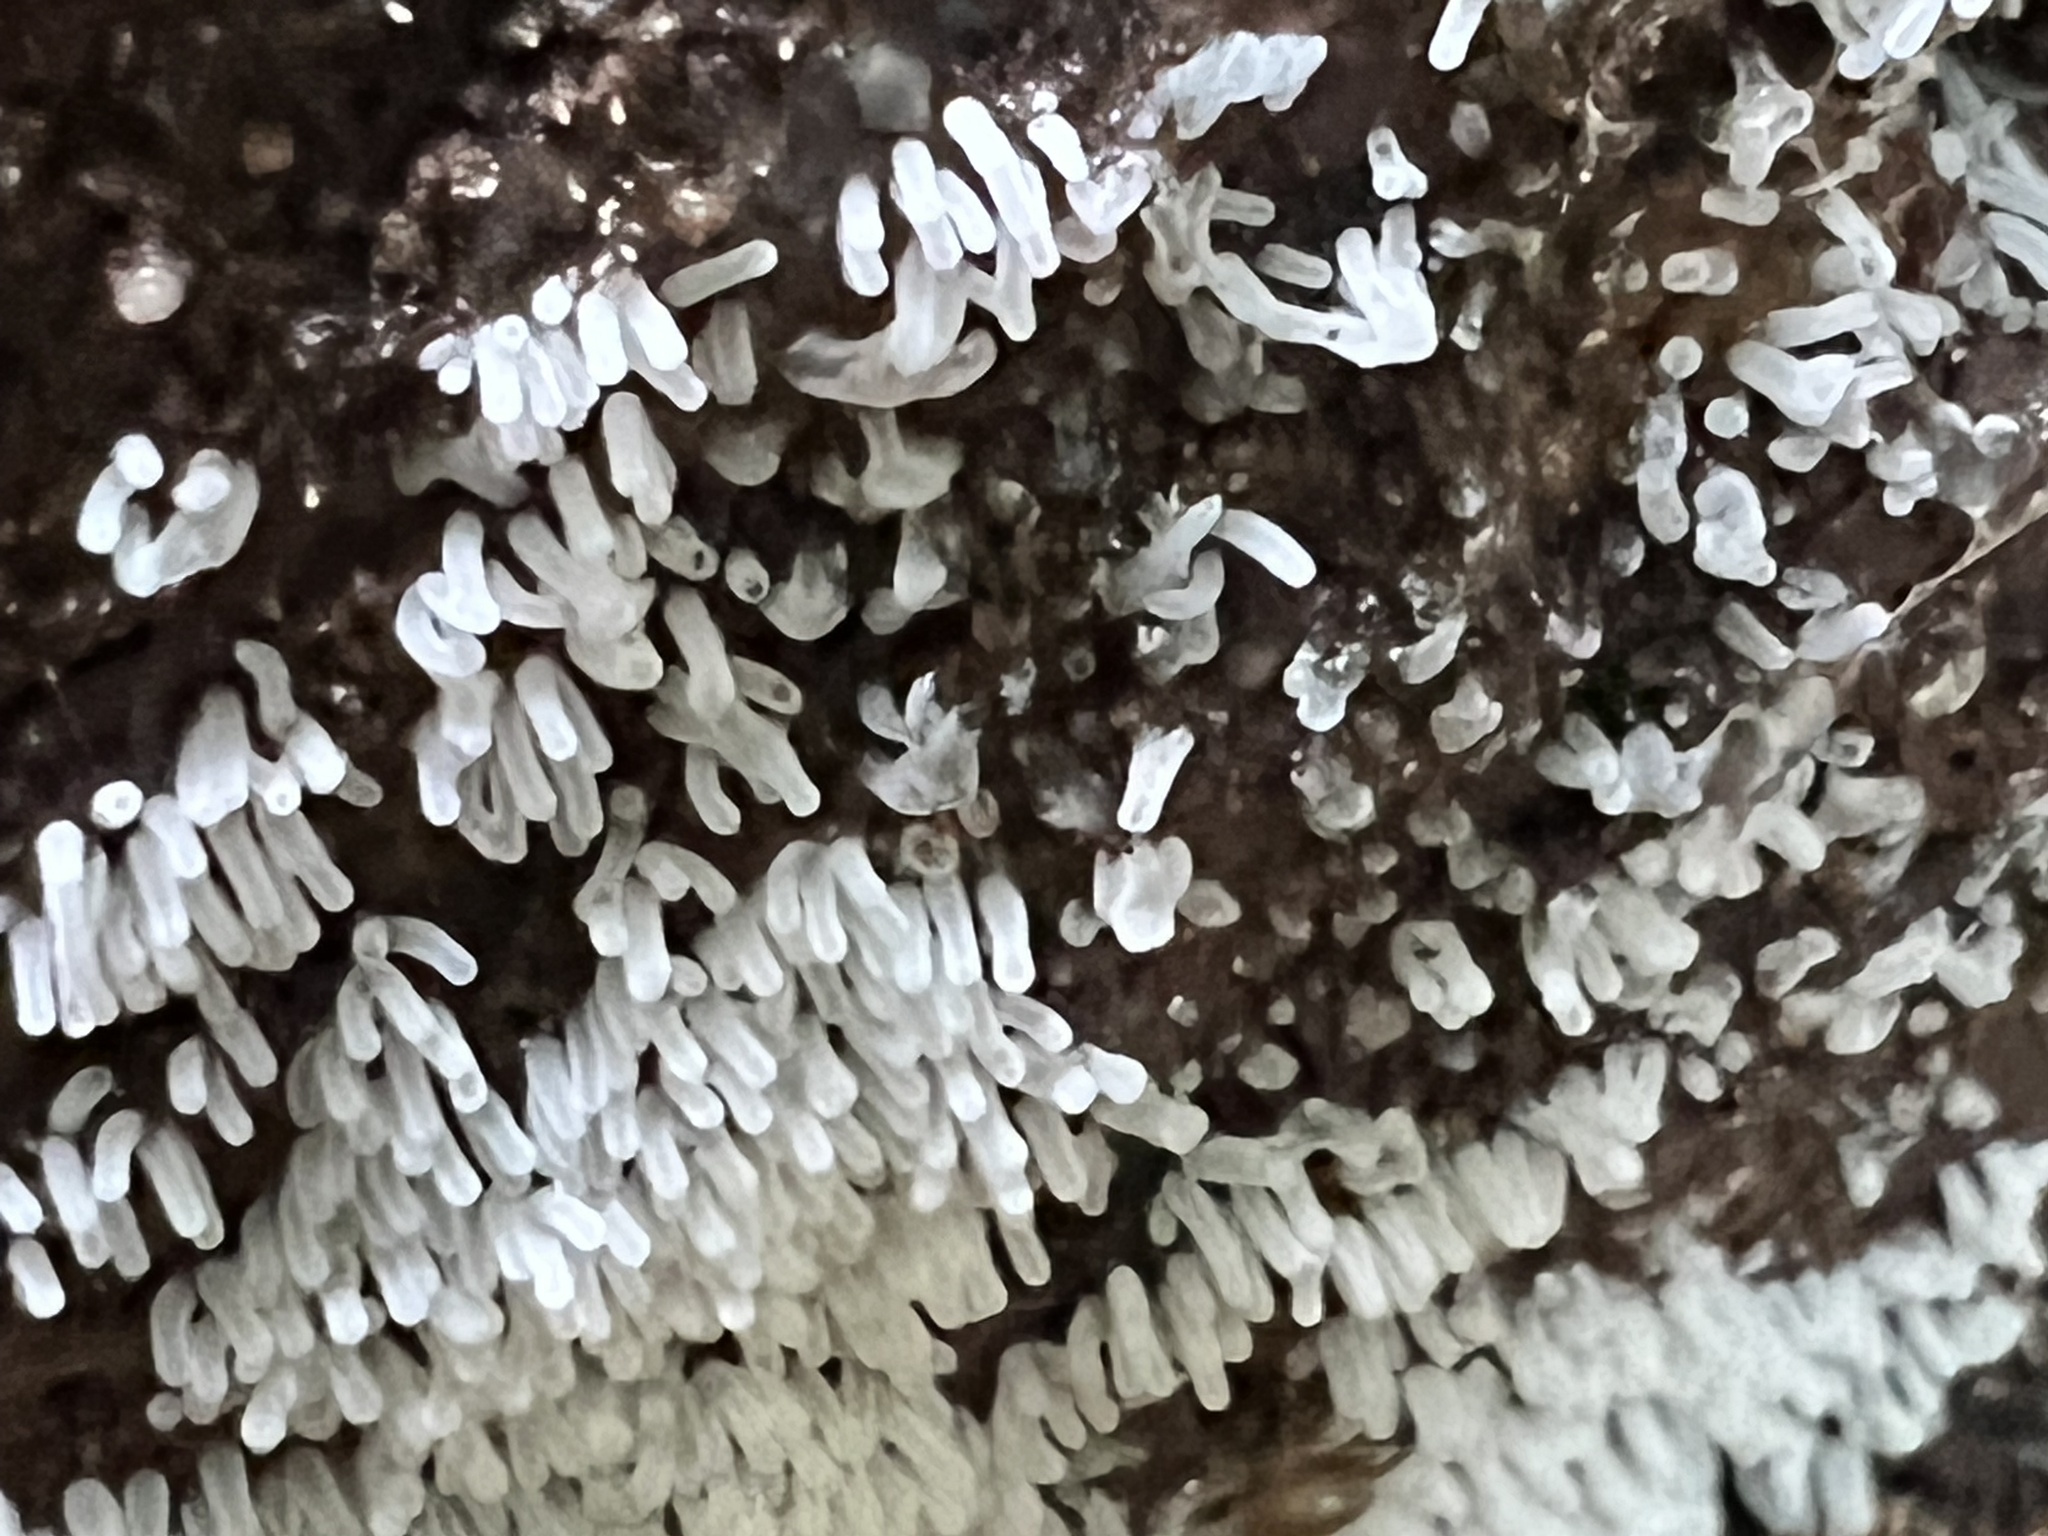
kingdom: Protozoa
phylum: Mycetozoa
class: Protosteliomycetes
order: Ceratiomyxales
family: Ceratiomyxaceae
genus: Ceratiomyxa
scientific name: Ceratiomyxa fruticulosa
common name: Honeycomb coral slime mold
